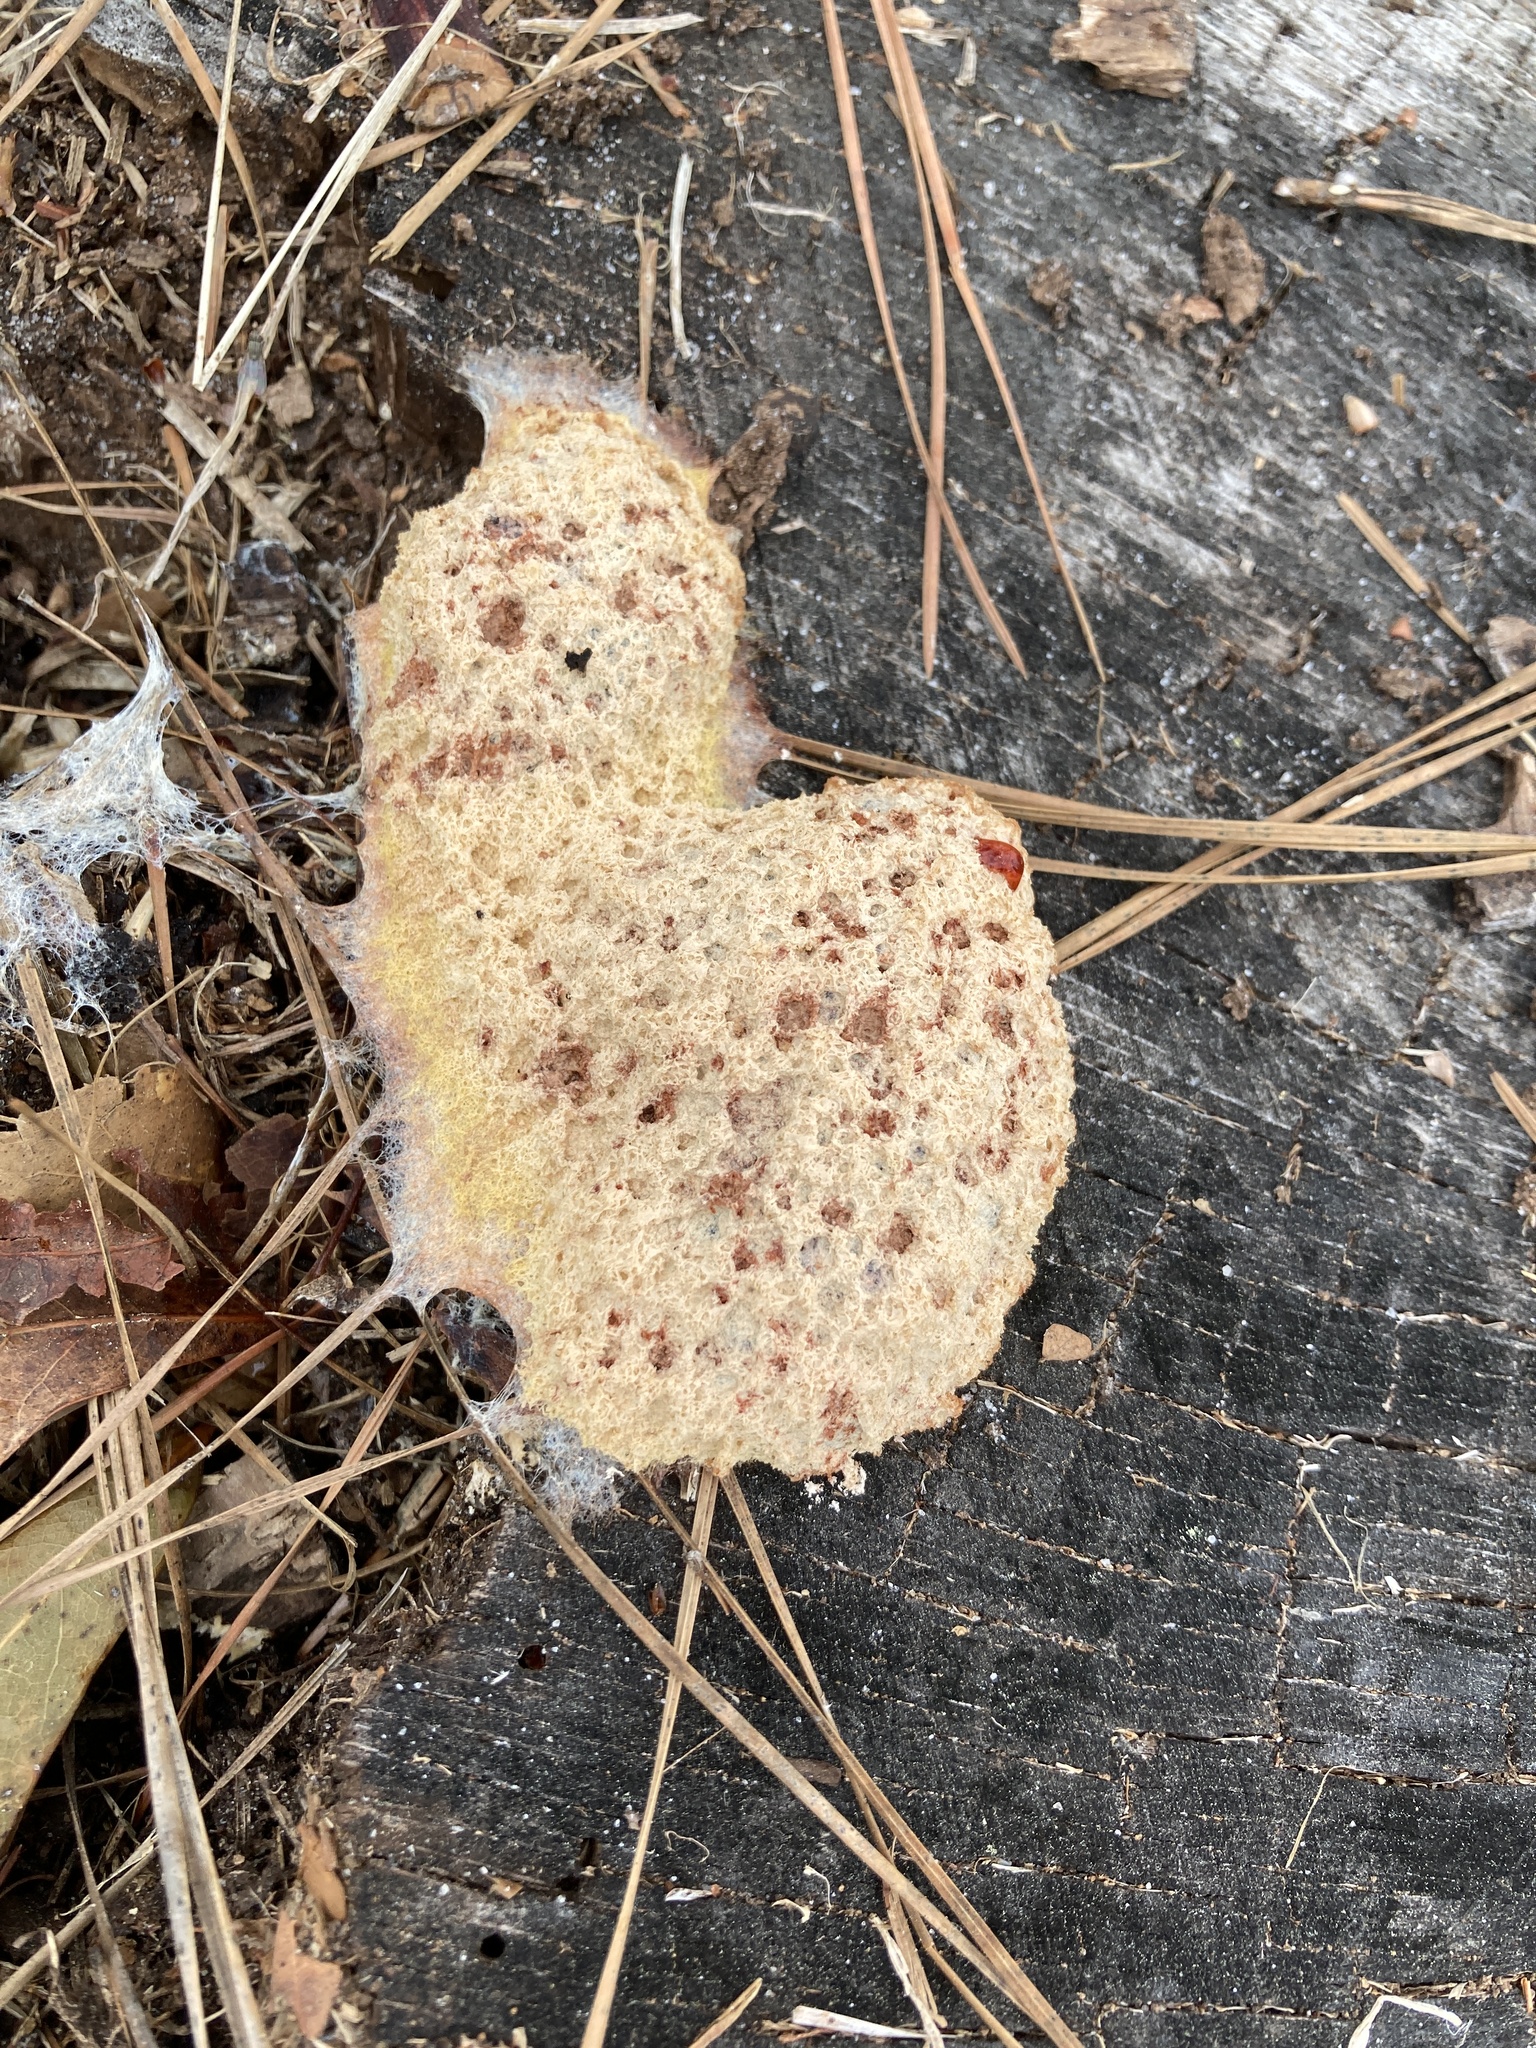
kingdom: Protozoa
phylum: Mycetozoa
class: Myxomycetes
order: Physarales
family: Physaraceae
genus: Fuligo
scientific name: Fuligo septica
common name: Dog vomit slime mold
